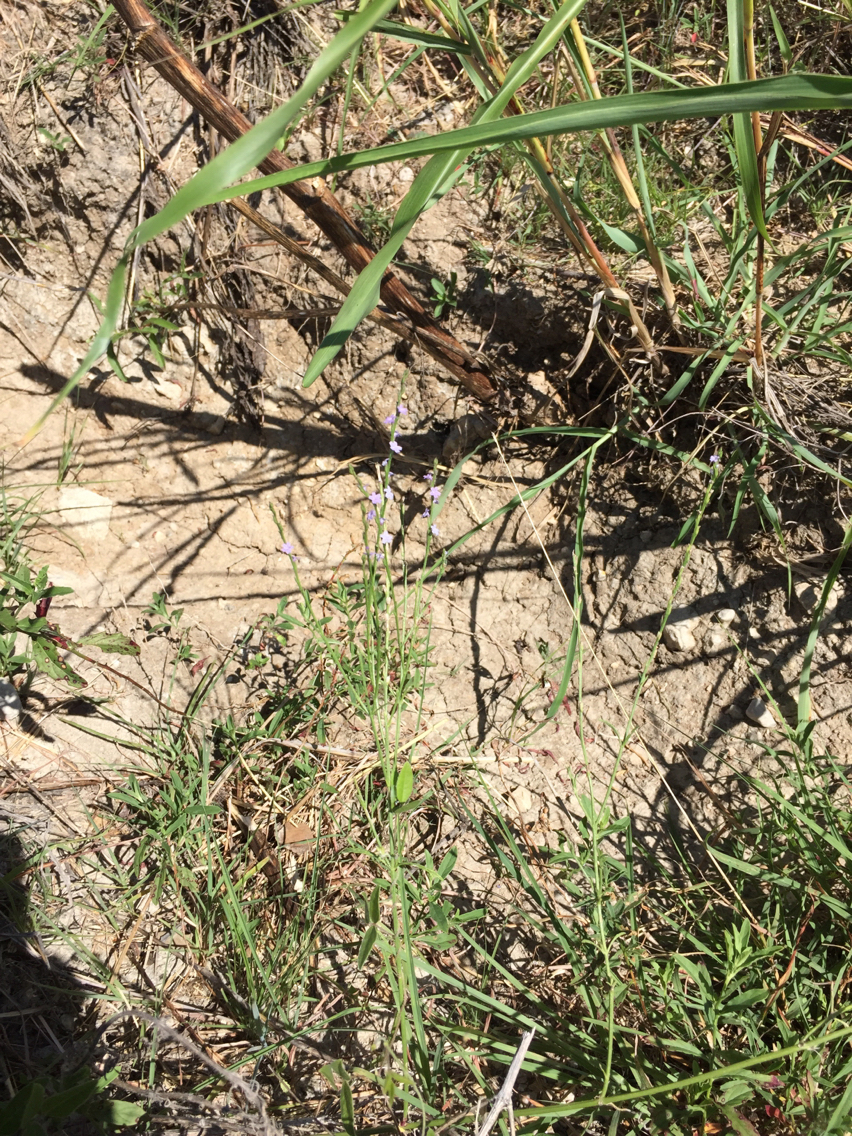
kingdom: Plantae
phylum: Tracheophyta
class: Magnoliopsida
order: Lamiales
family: Verbenaceae
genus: Verbena
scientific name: Verbena halei
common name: Texas vervain
